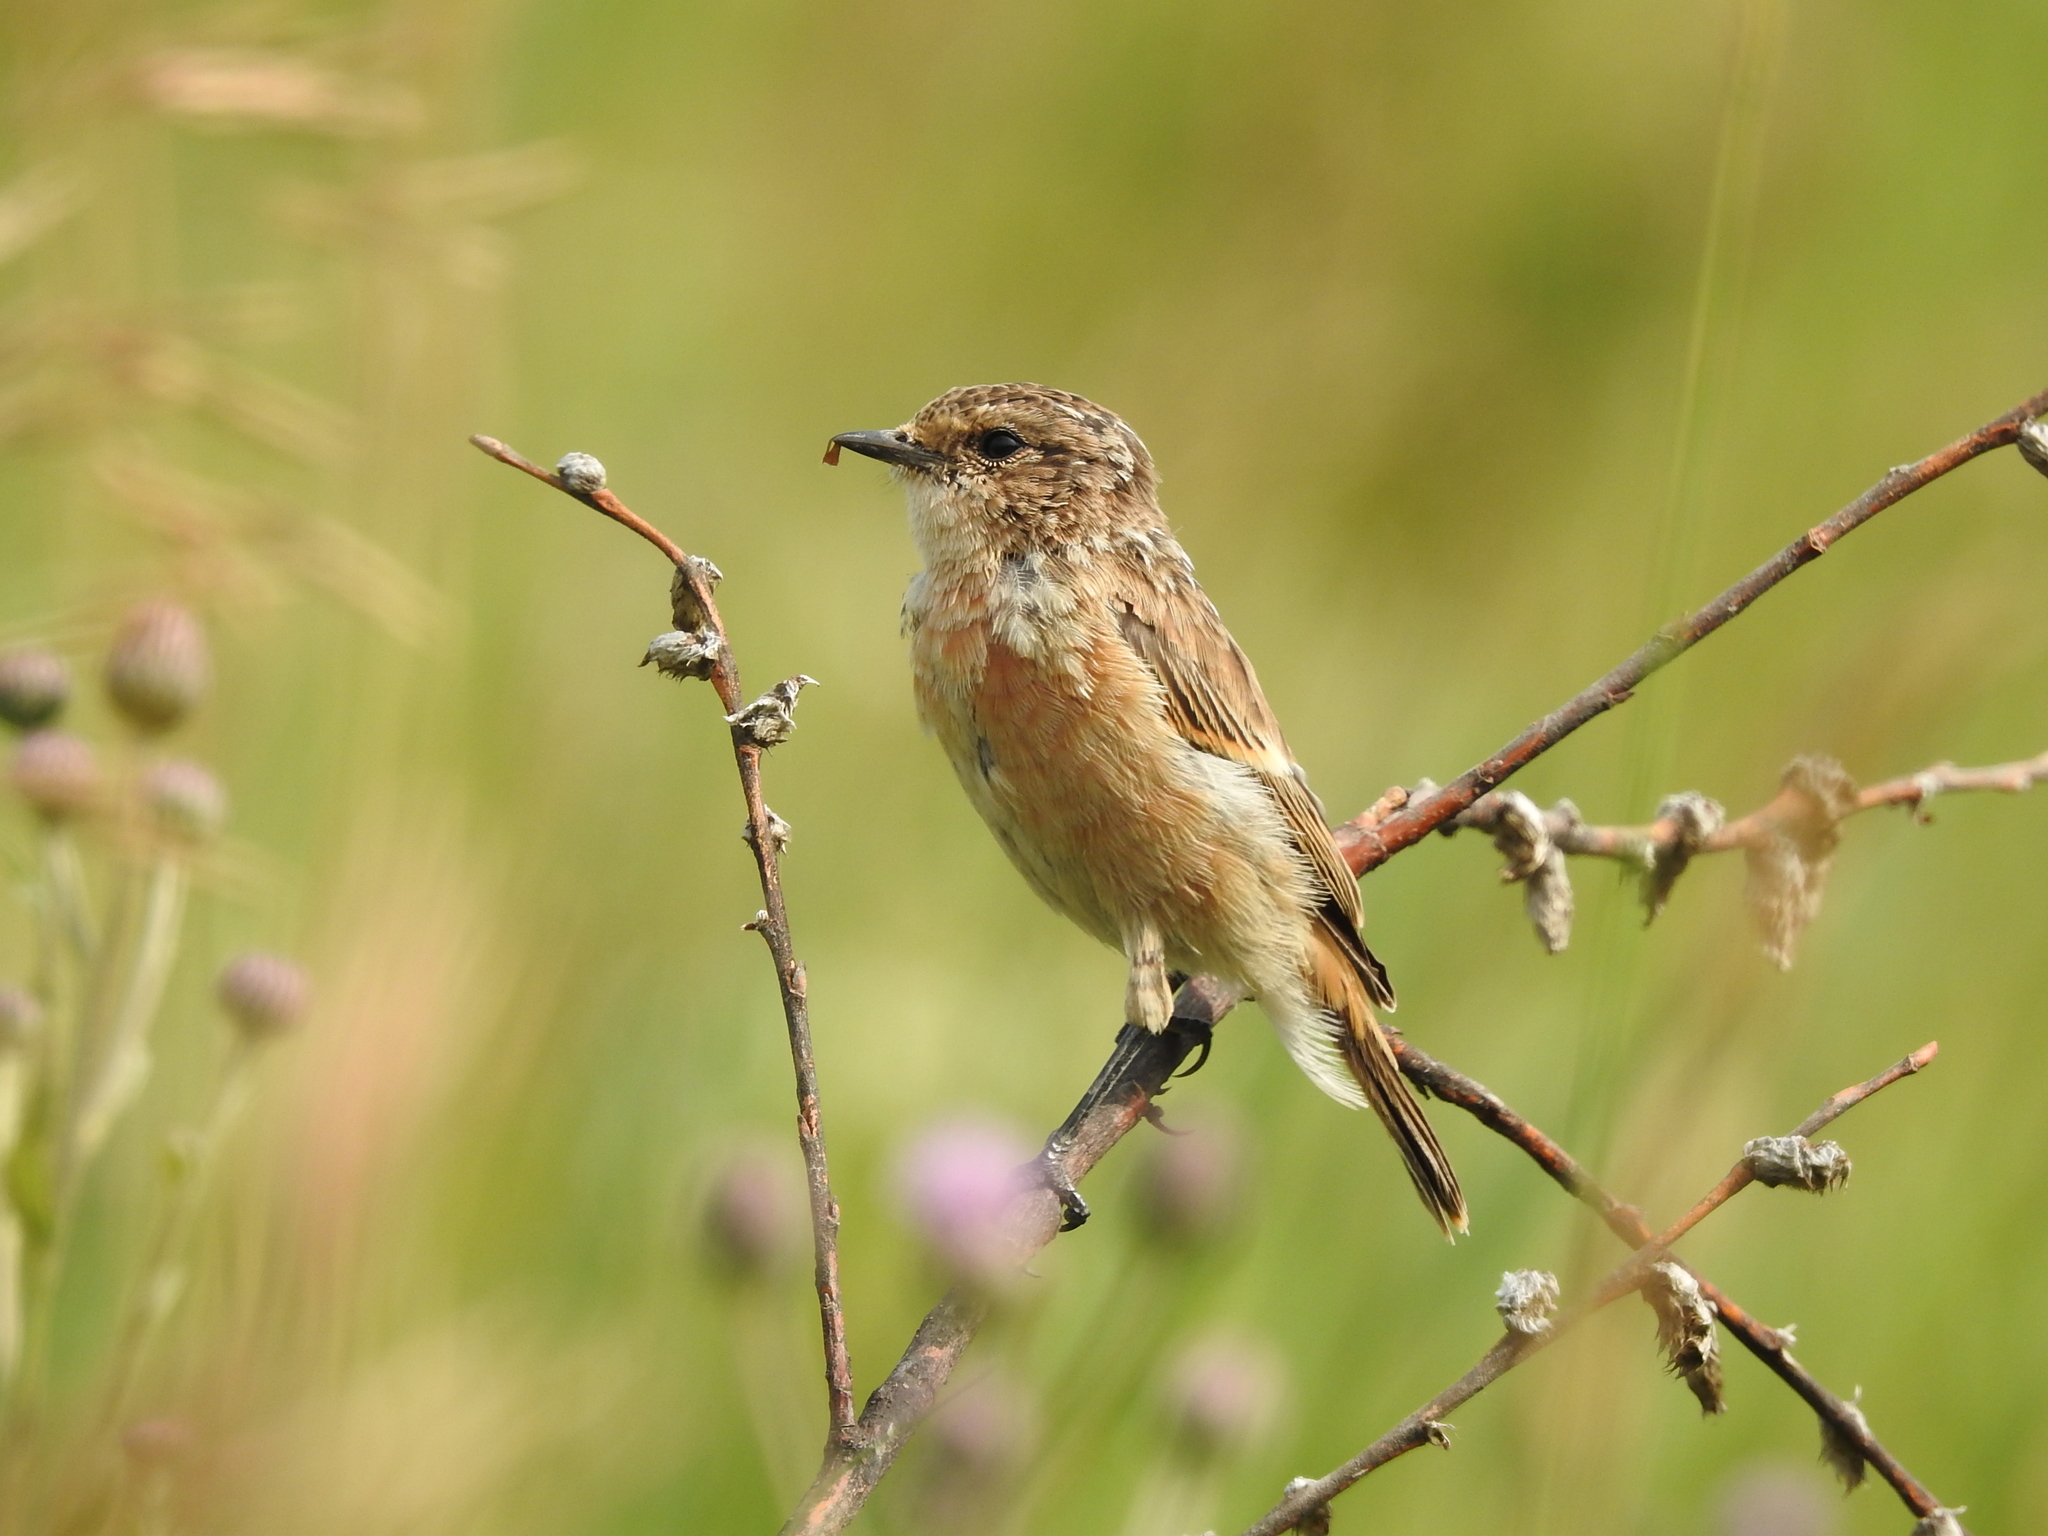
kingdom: Animalia
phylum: Chordata
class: Aves
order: Passeriformes
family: Muscicapidae
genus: Saxicola
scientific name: Saxicola maurus
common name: Siberian stonechat
